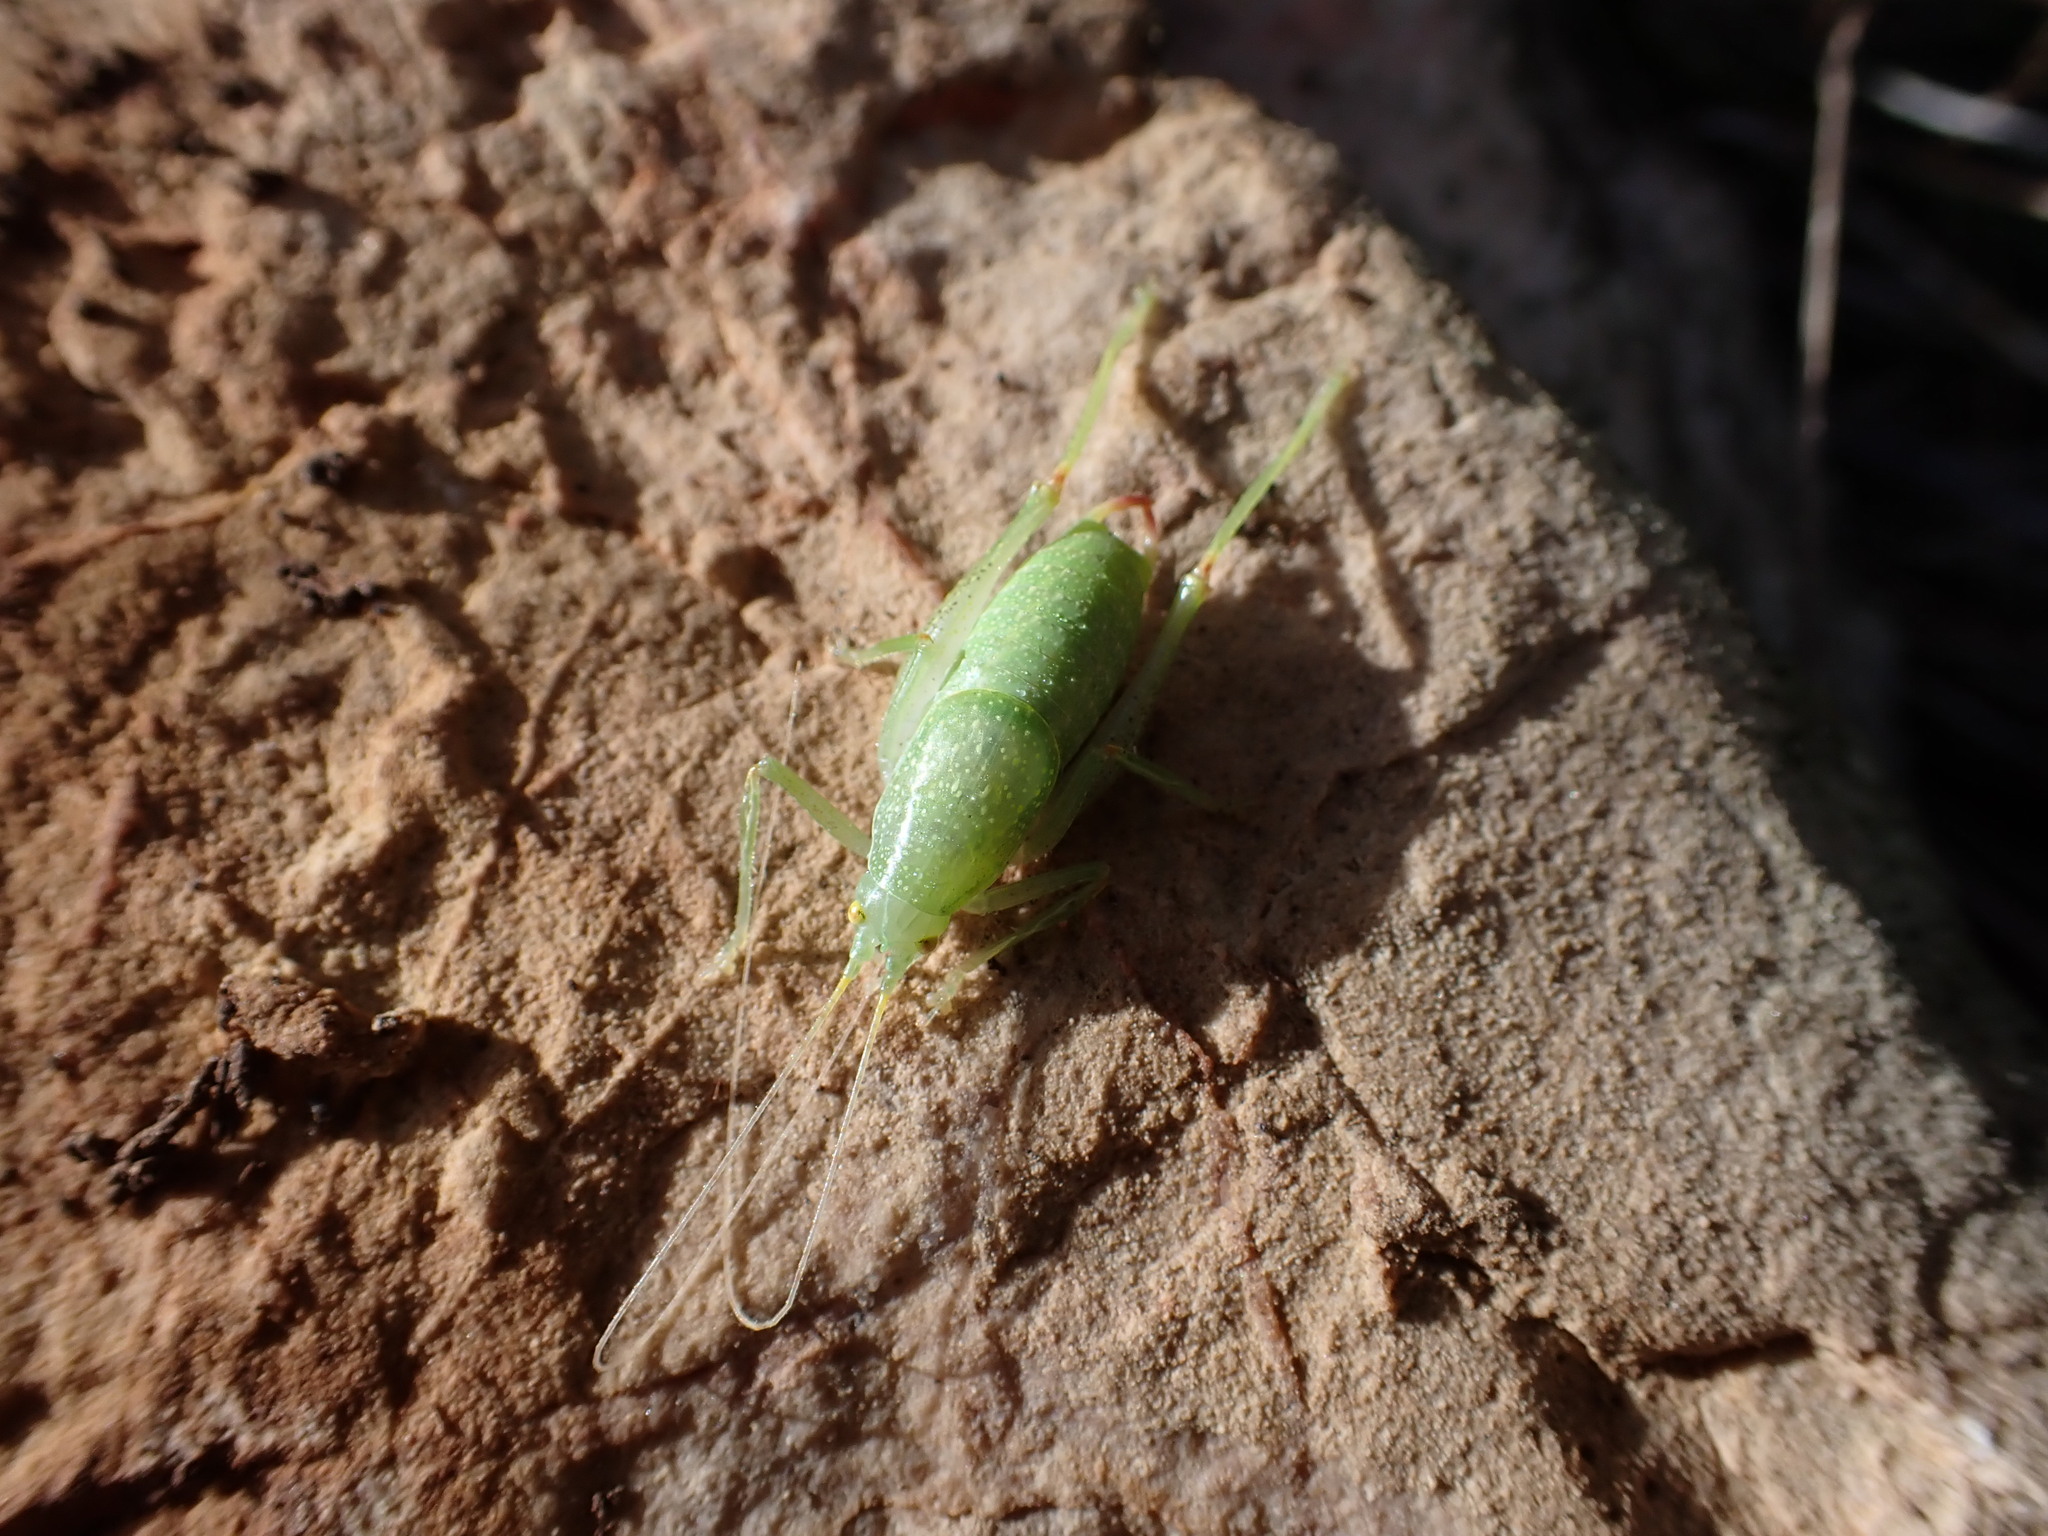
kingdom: Animalia
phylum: Arthropoda
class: Insecta
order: Orthoptera
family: Tettigoniidae
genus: Cyrtaspis
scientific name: Cyrtaspis scutata
